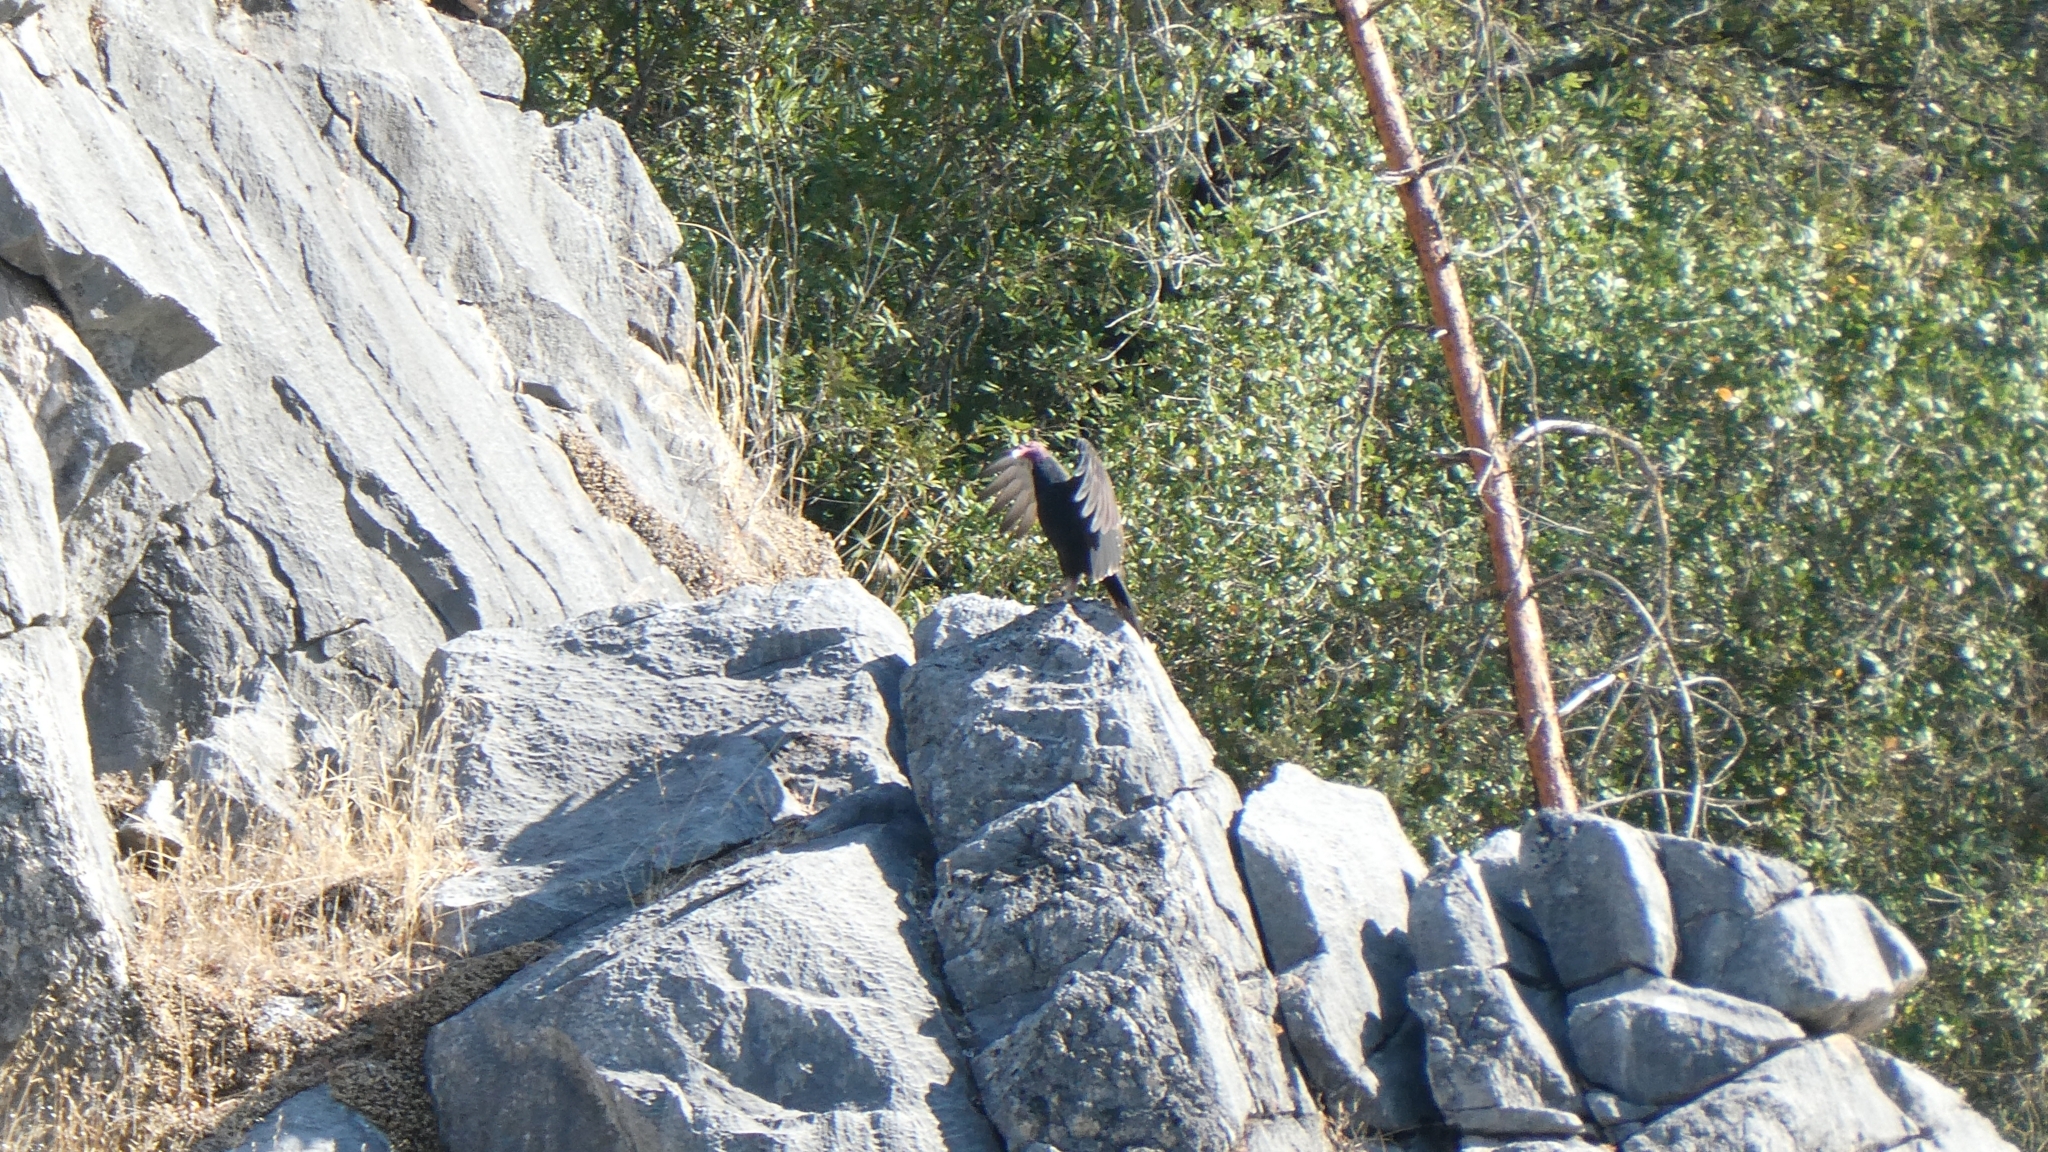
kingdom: Animalia
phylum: Chordata
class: Aves
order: Accipitriformes
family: Cathartidae
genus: Cathartes
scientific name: Cathartes aura
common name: Turkey vulture
